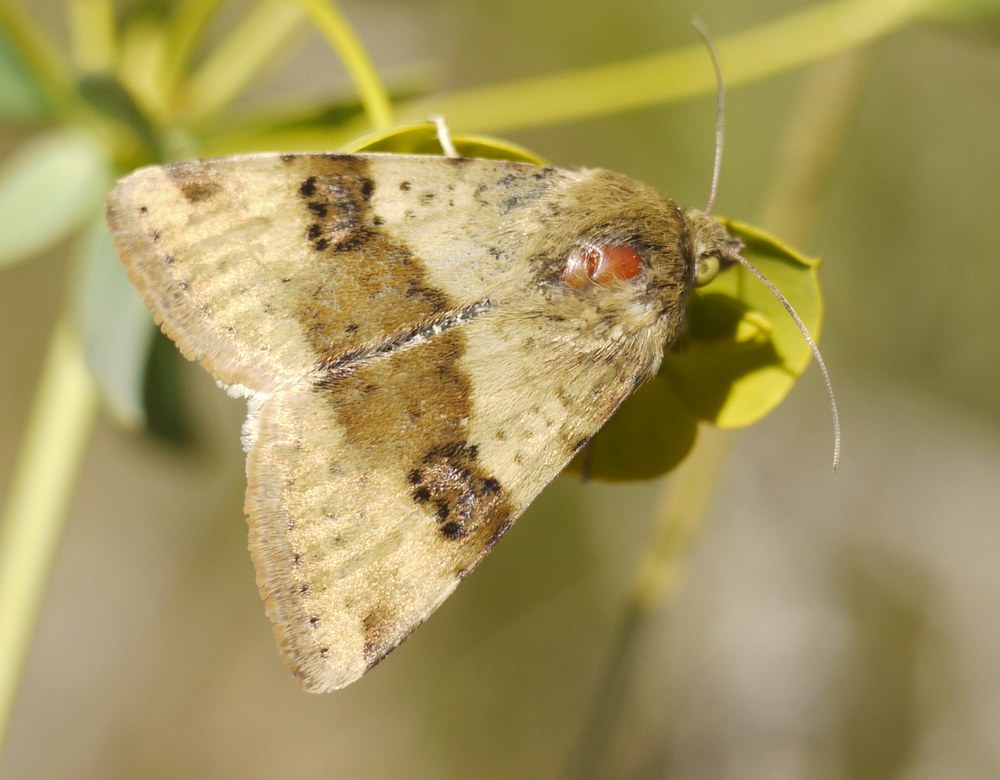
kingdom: Animalia
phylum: Arthropoda
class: Insecta
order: Lepidoptera
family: Noctuidae
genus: Heliothis
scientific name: Heliothis viriplaca
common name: Marbled clover
